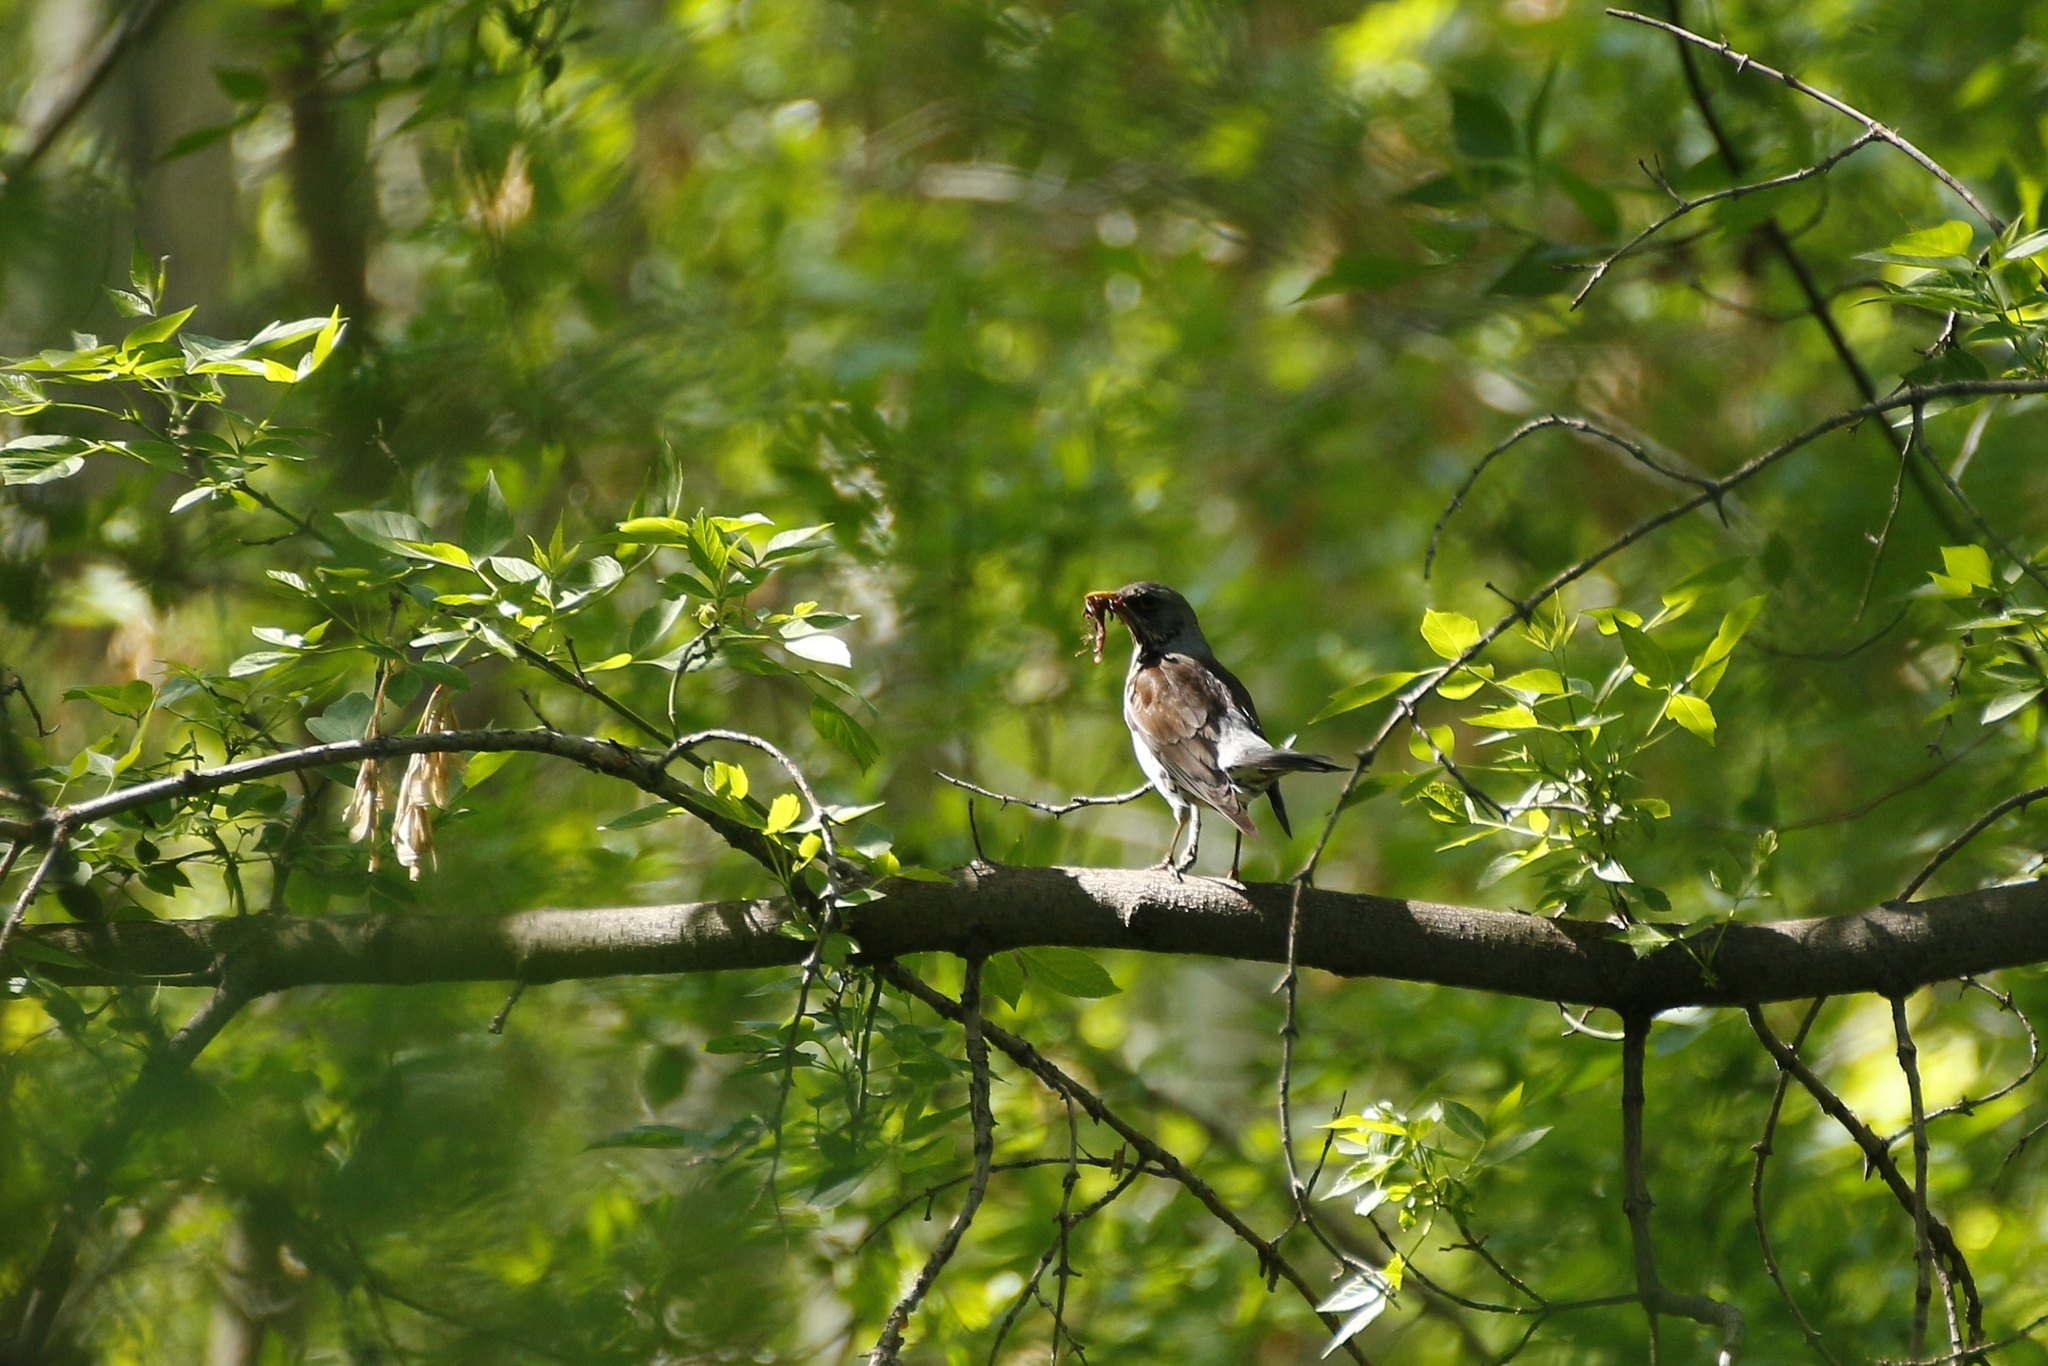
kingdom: Animalia
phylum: Chordata
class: Aves
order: Passeriformes
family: Turdidae
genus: Turdus
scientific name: Turdus pilaris
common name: Fieldfare
